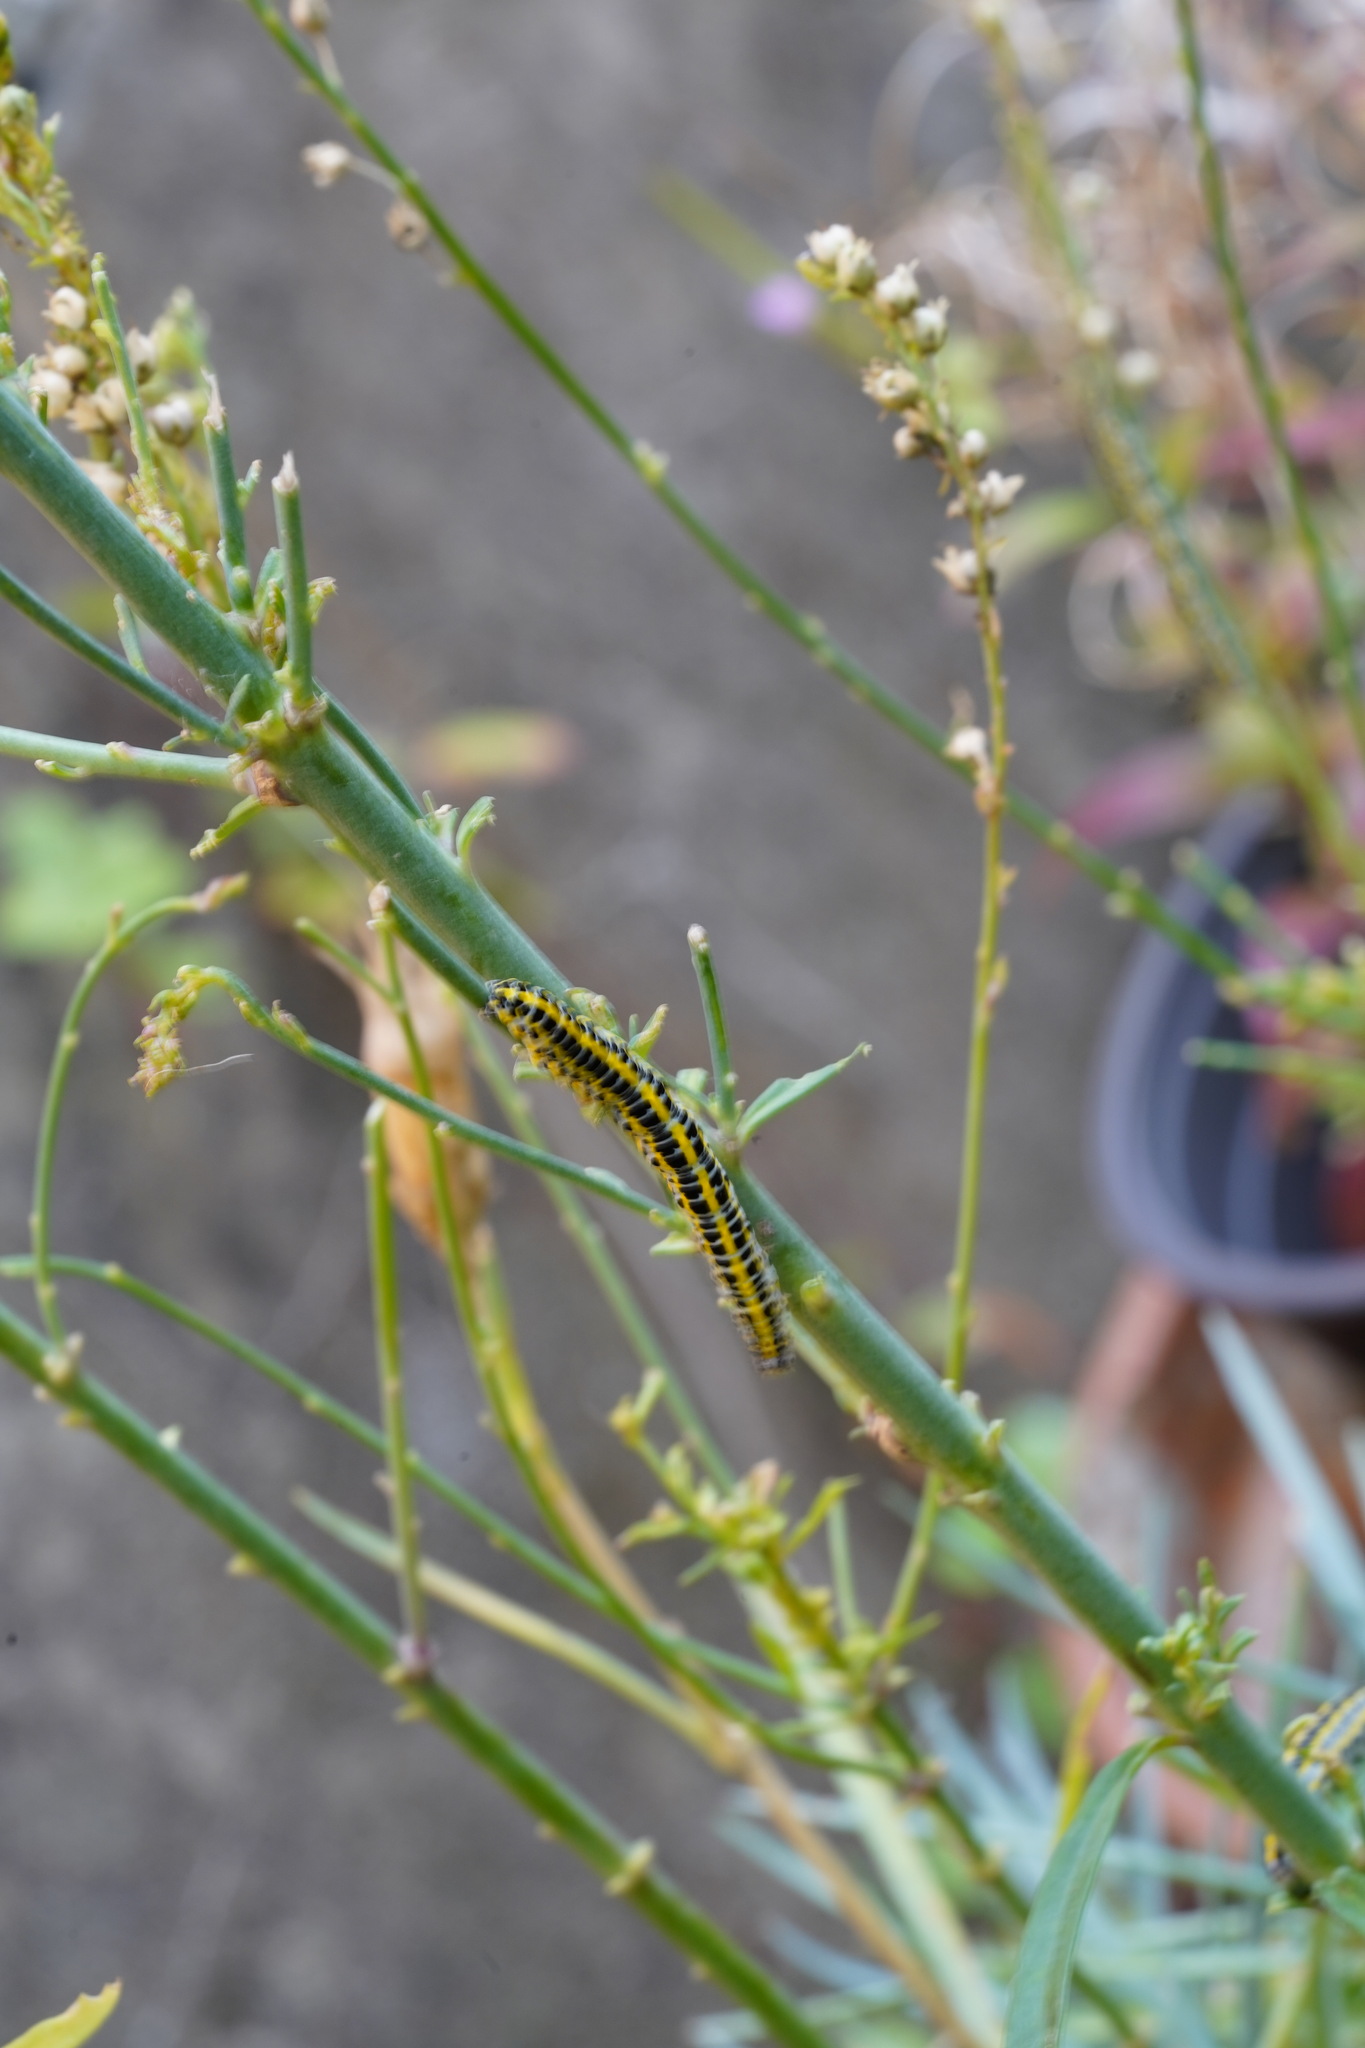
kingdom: Animalia
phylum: Arthropoda
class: Insecta
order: Lepidoptera
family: Noctuidae
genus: Calophasia
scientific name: Calophasia lunula
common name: Toadflax brocade
